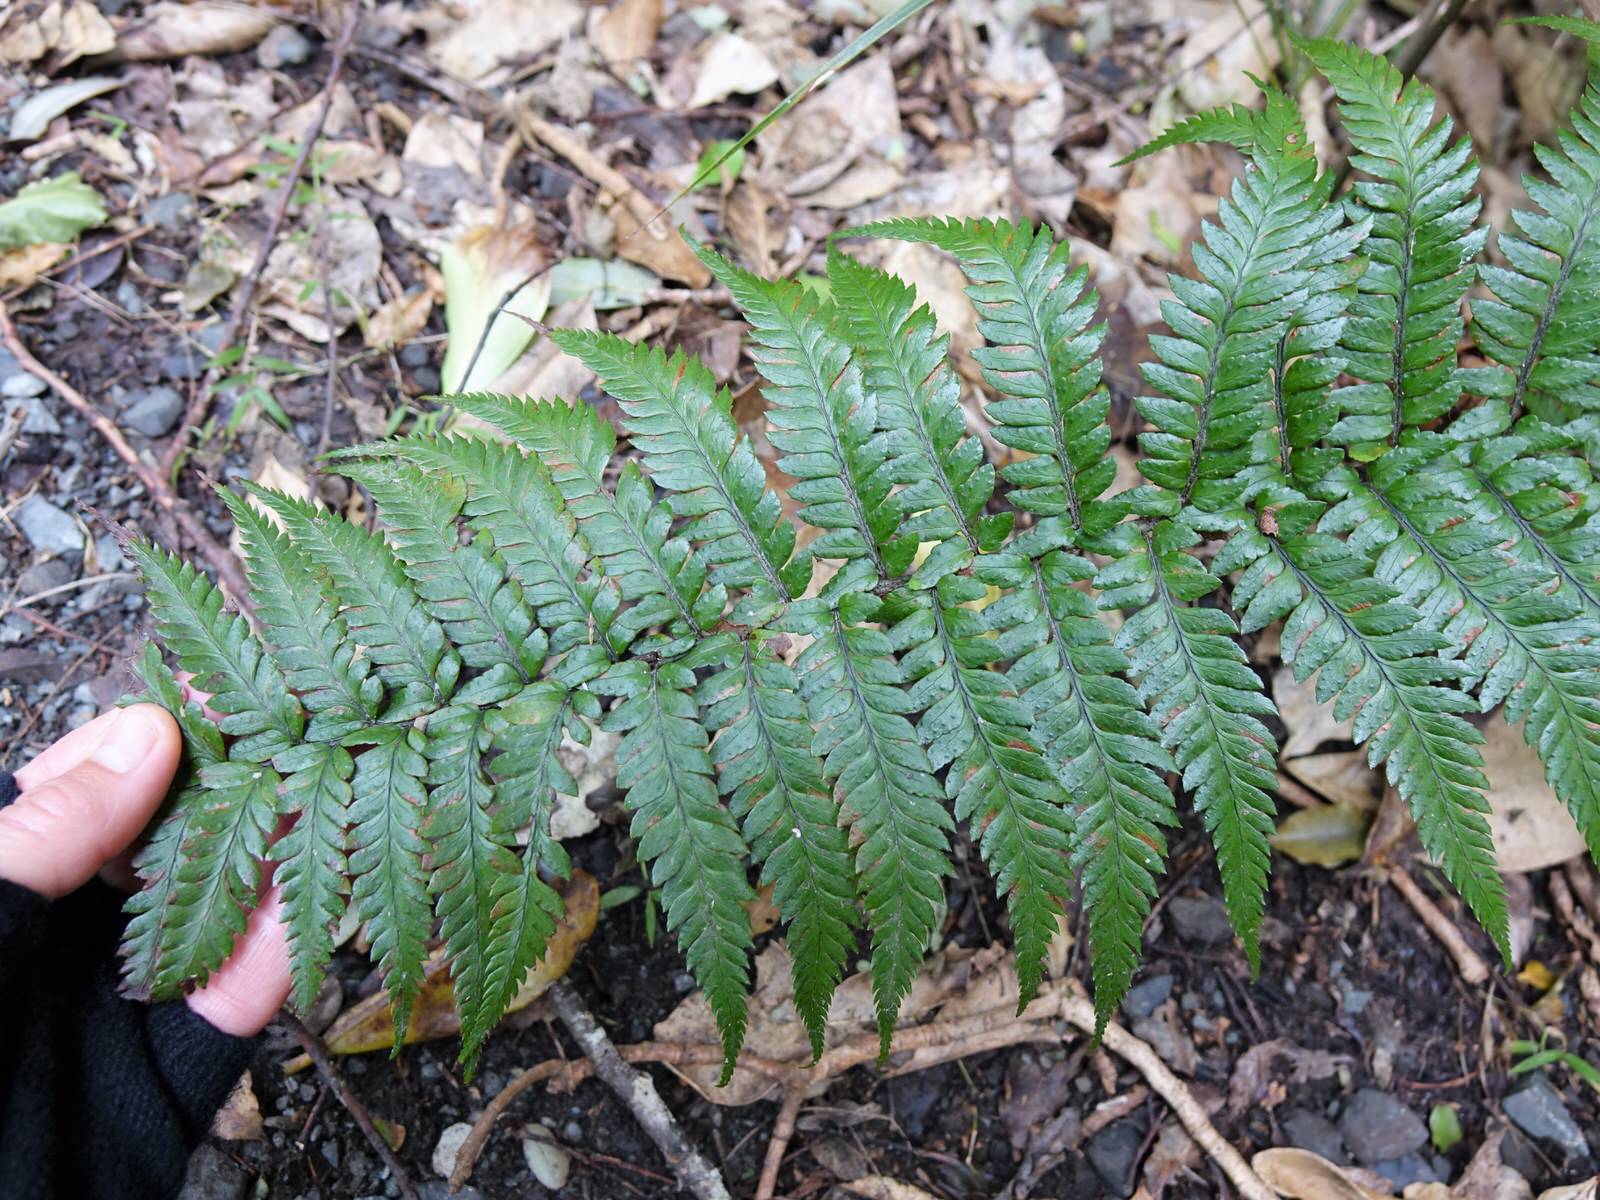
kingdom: Plantae
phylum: Tracheophyta
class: Polypodiopsida
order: Polypodiales
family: Dryopteridaceae
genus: Polystichum
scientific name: Polystichum wawranum
